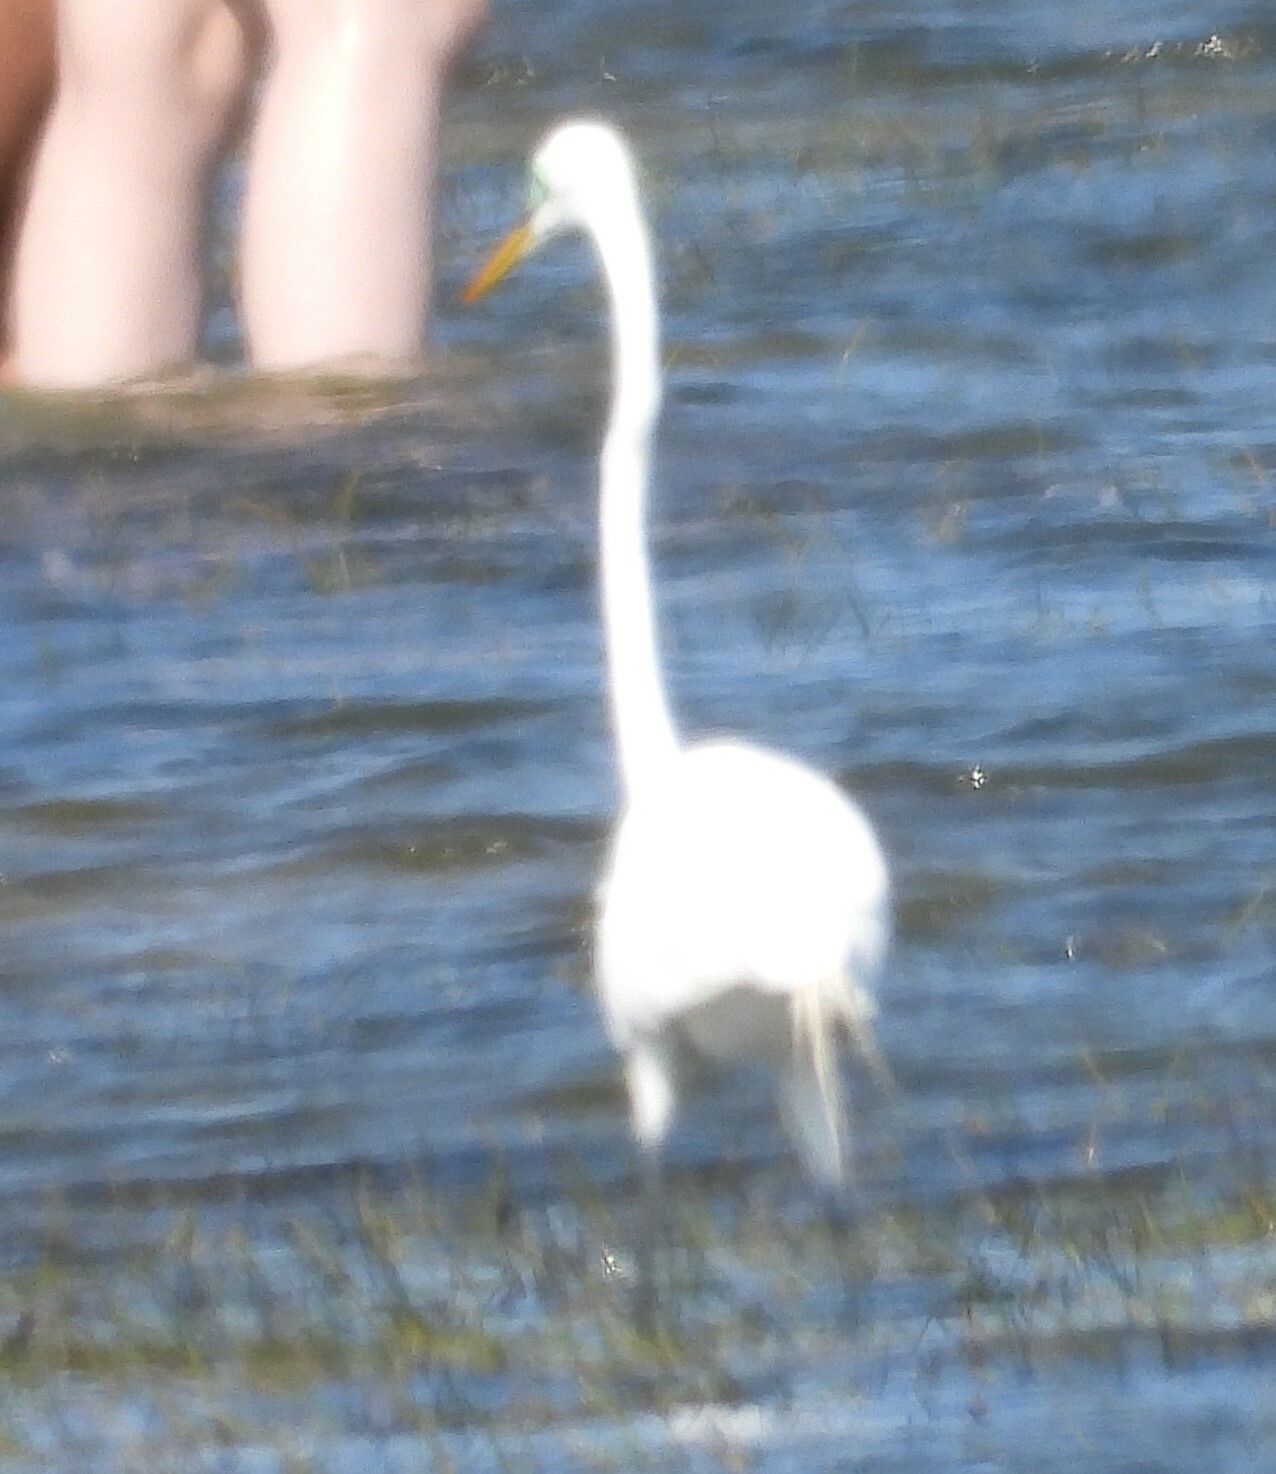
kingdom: Animalia
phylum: Chordata
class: Aves
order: Pelecaniformes
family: Ardeidae
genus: Ardea
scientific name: Ardea alba
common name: Great egret
